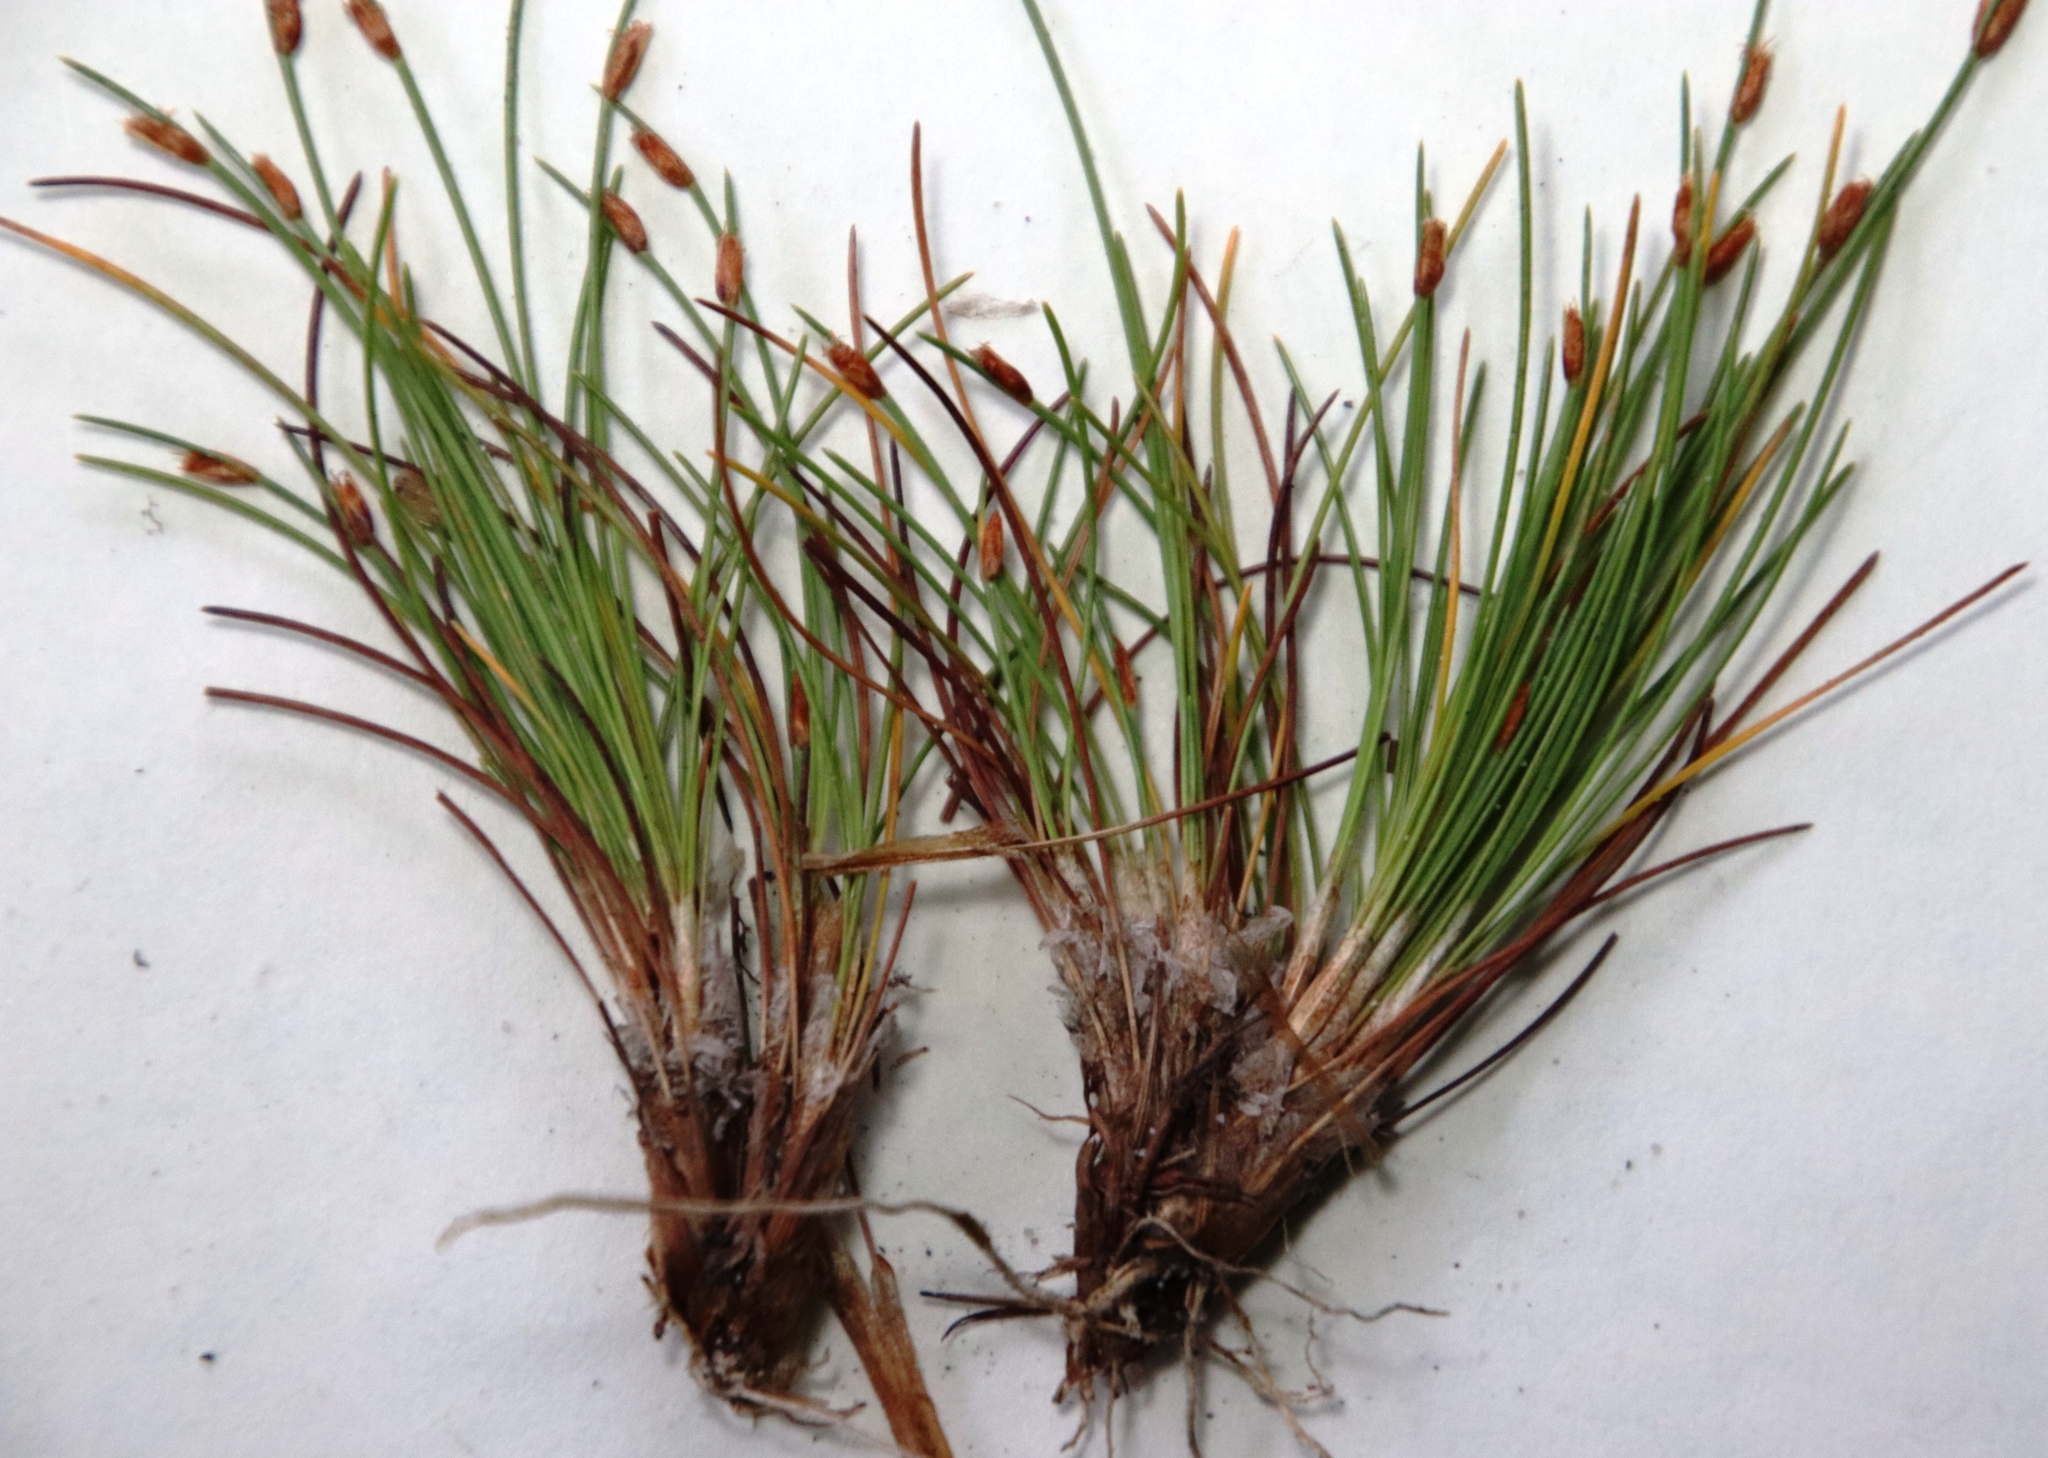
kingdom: Plantae
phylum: Tracheophyta
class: Liliopsida
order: Poales
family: Cyperaceae
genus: Ficinia
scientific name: Ficinia zeyheri
